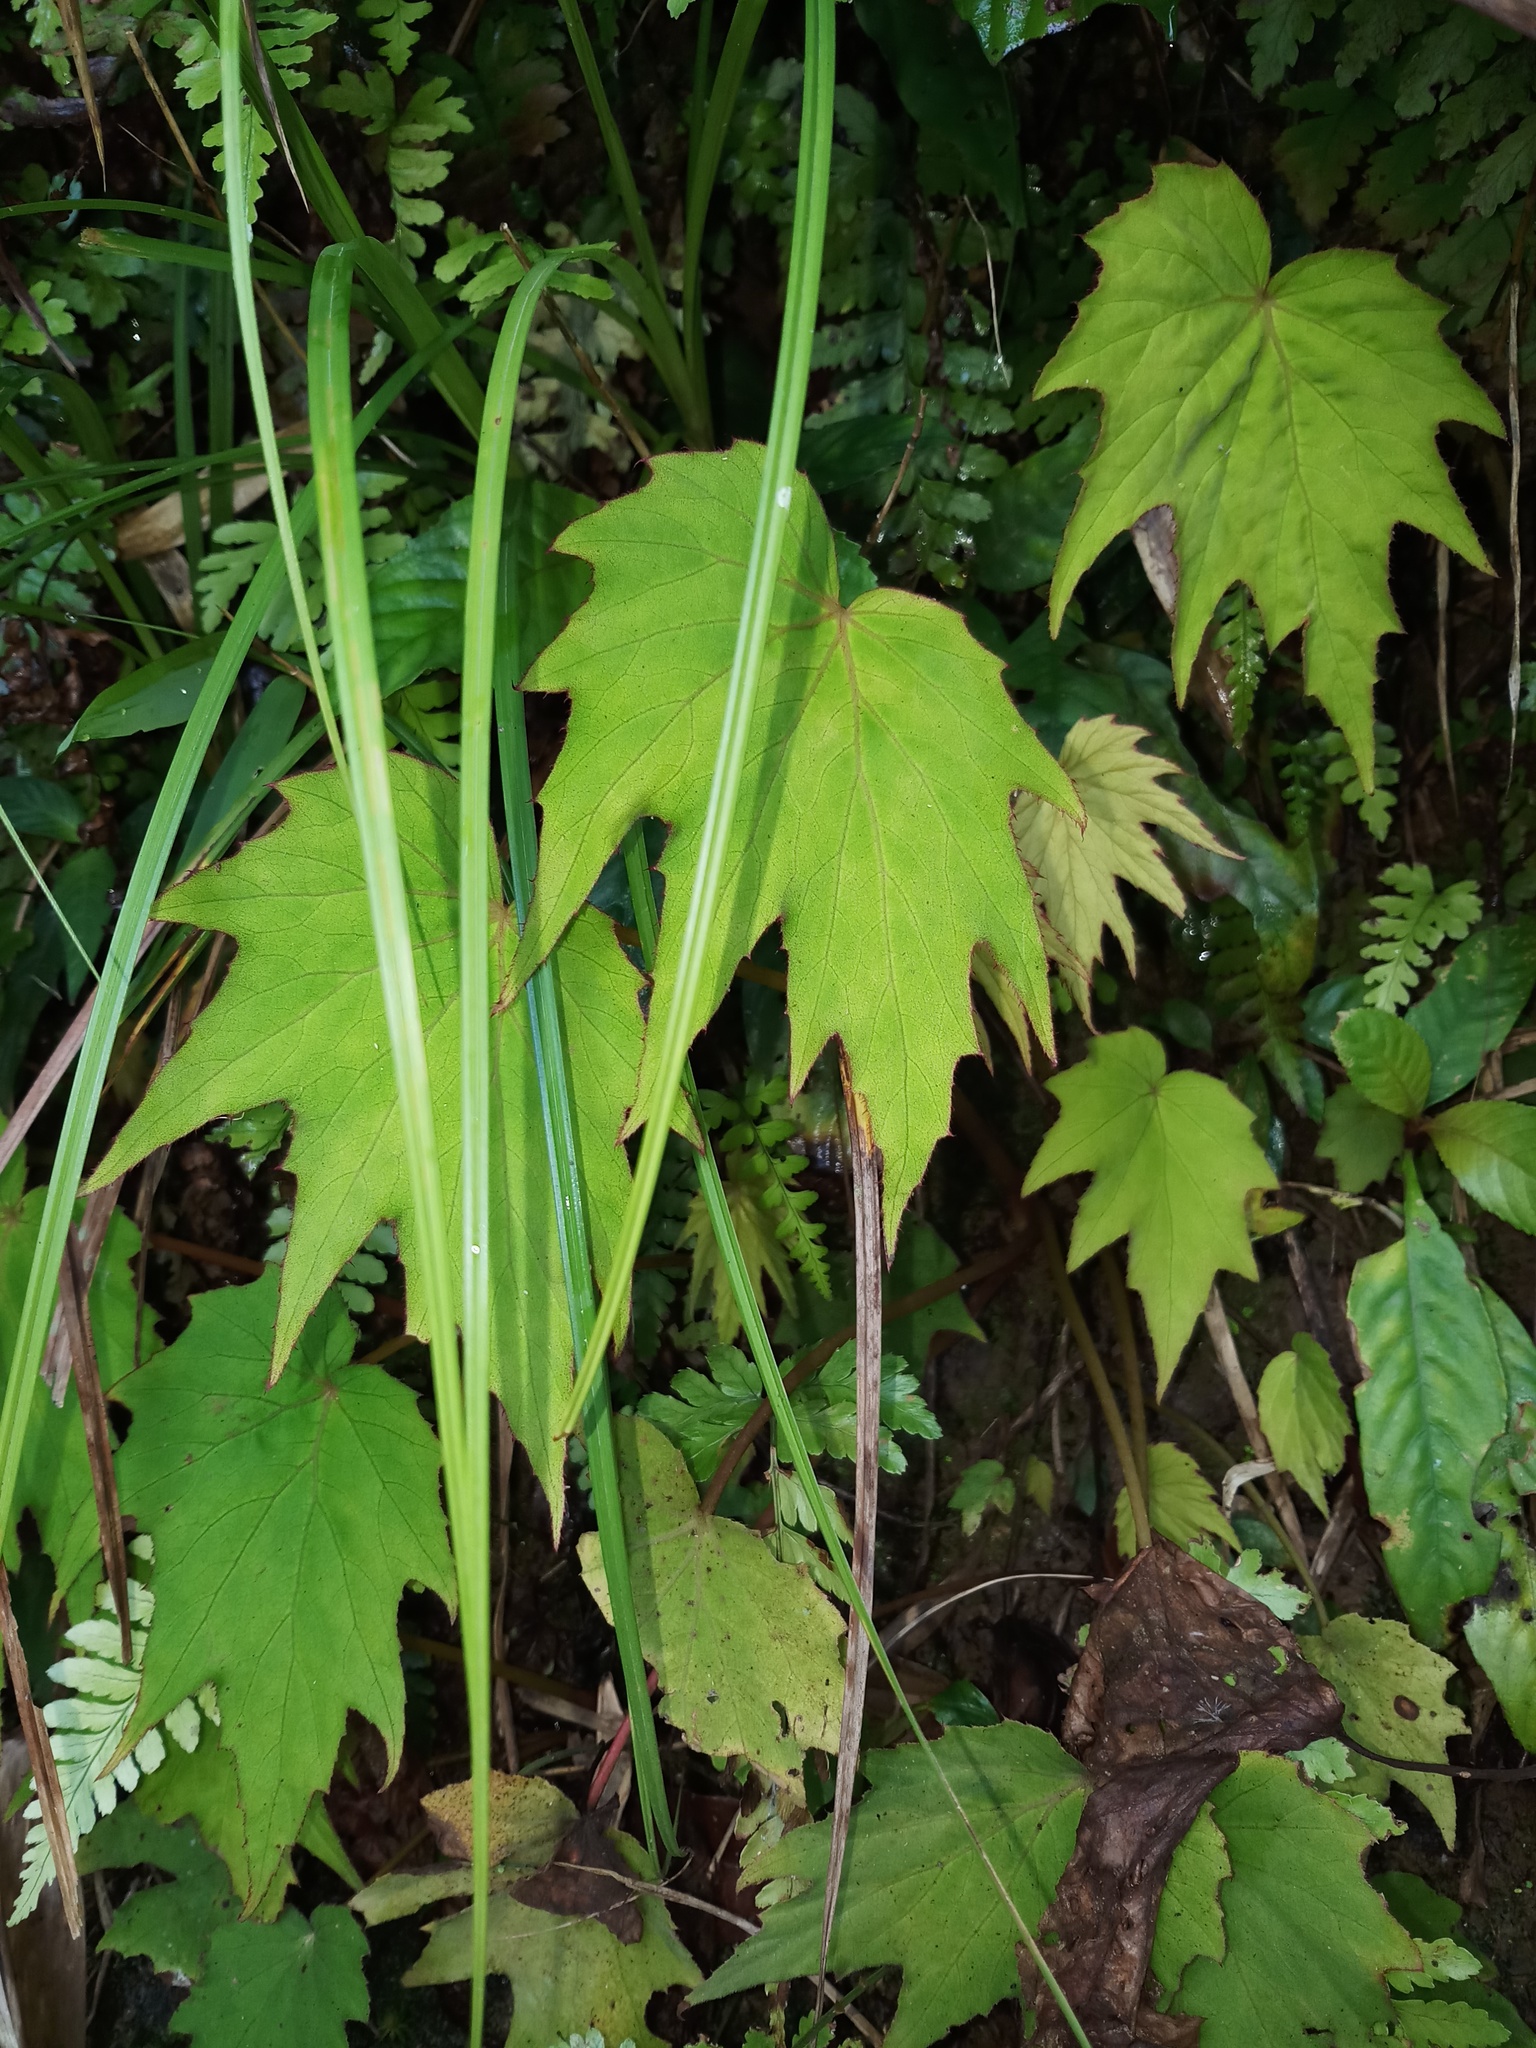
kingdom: Plantae
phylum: Tracheophyta
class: Magnoliopsida
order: Cucurbitales
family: Begoniaceae
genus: Begonia
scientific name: Begonia palmata
